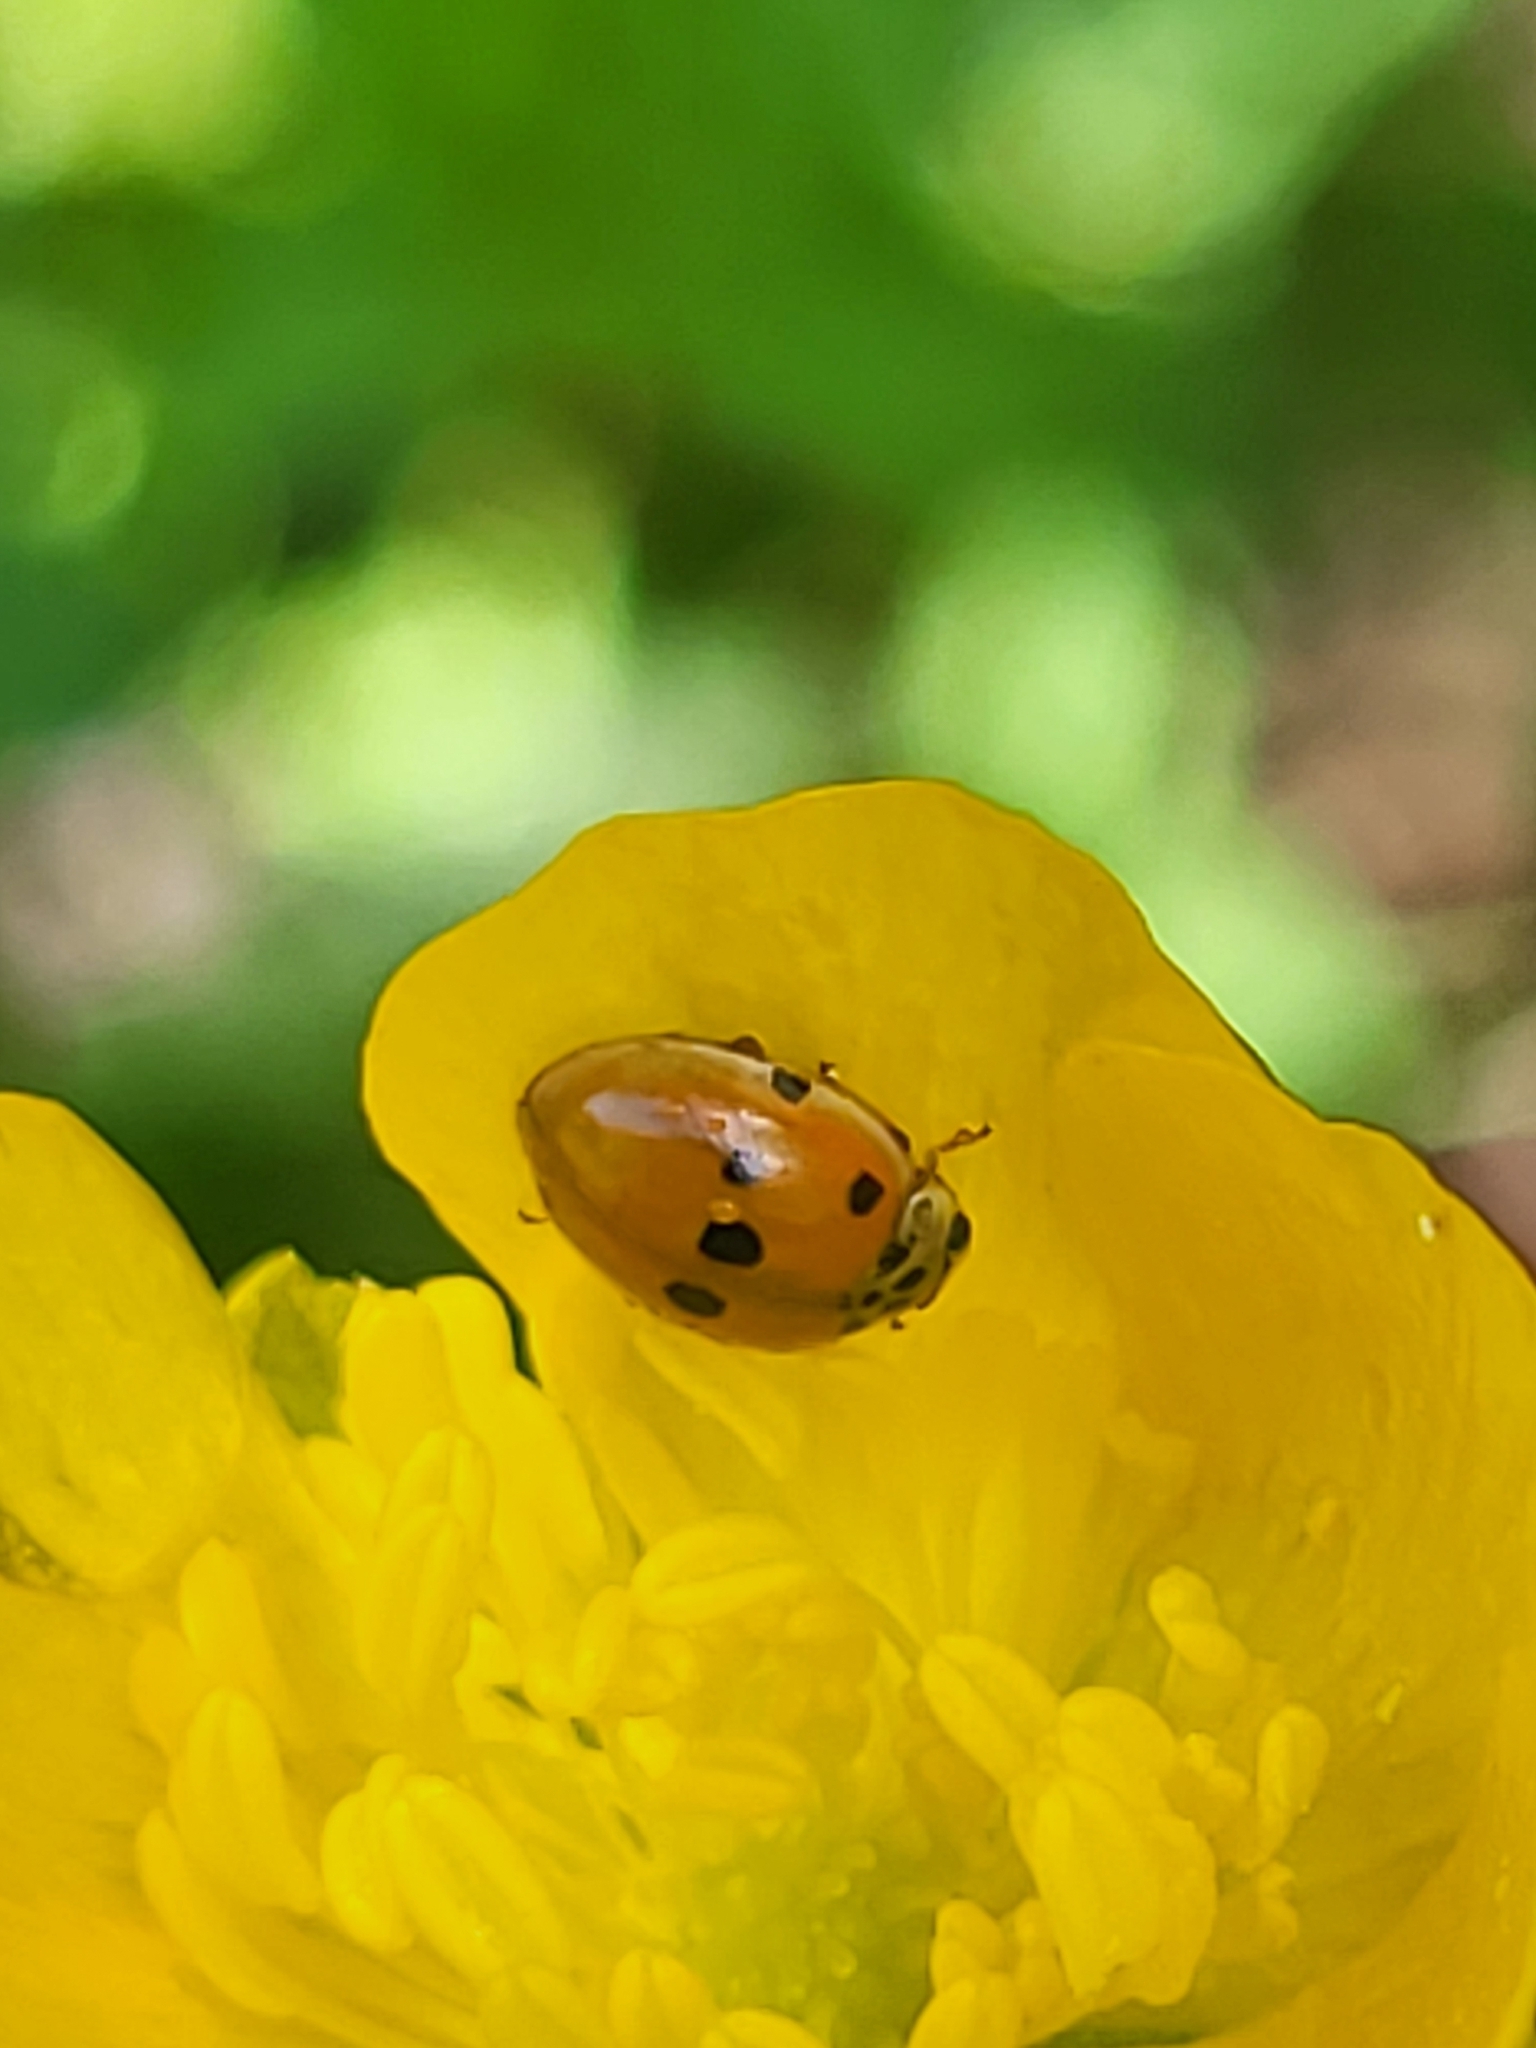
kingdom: Animalia
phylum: Arthropoda
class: Insecta
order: Coleoptera
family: Coccinellidae
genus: Adalia
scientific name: Adalia decempunctata
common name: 10-spot ladybird
